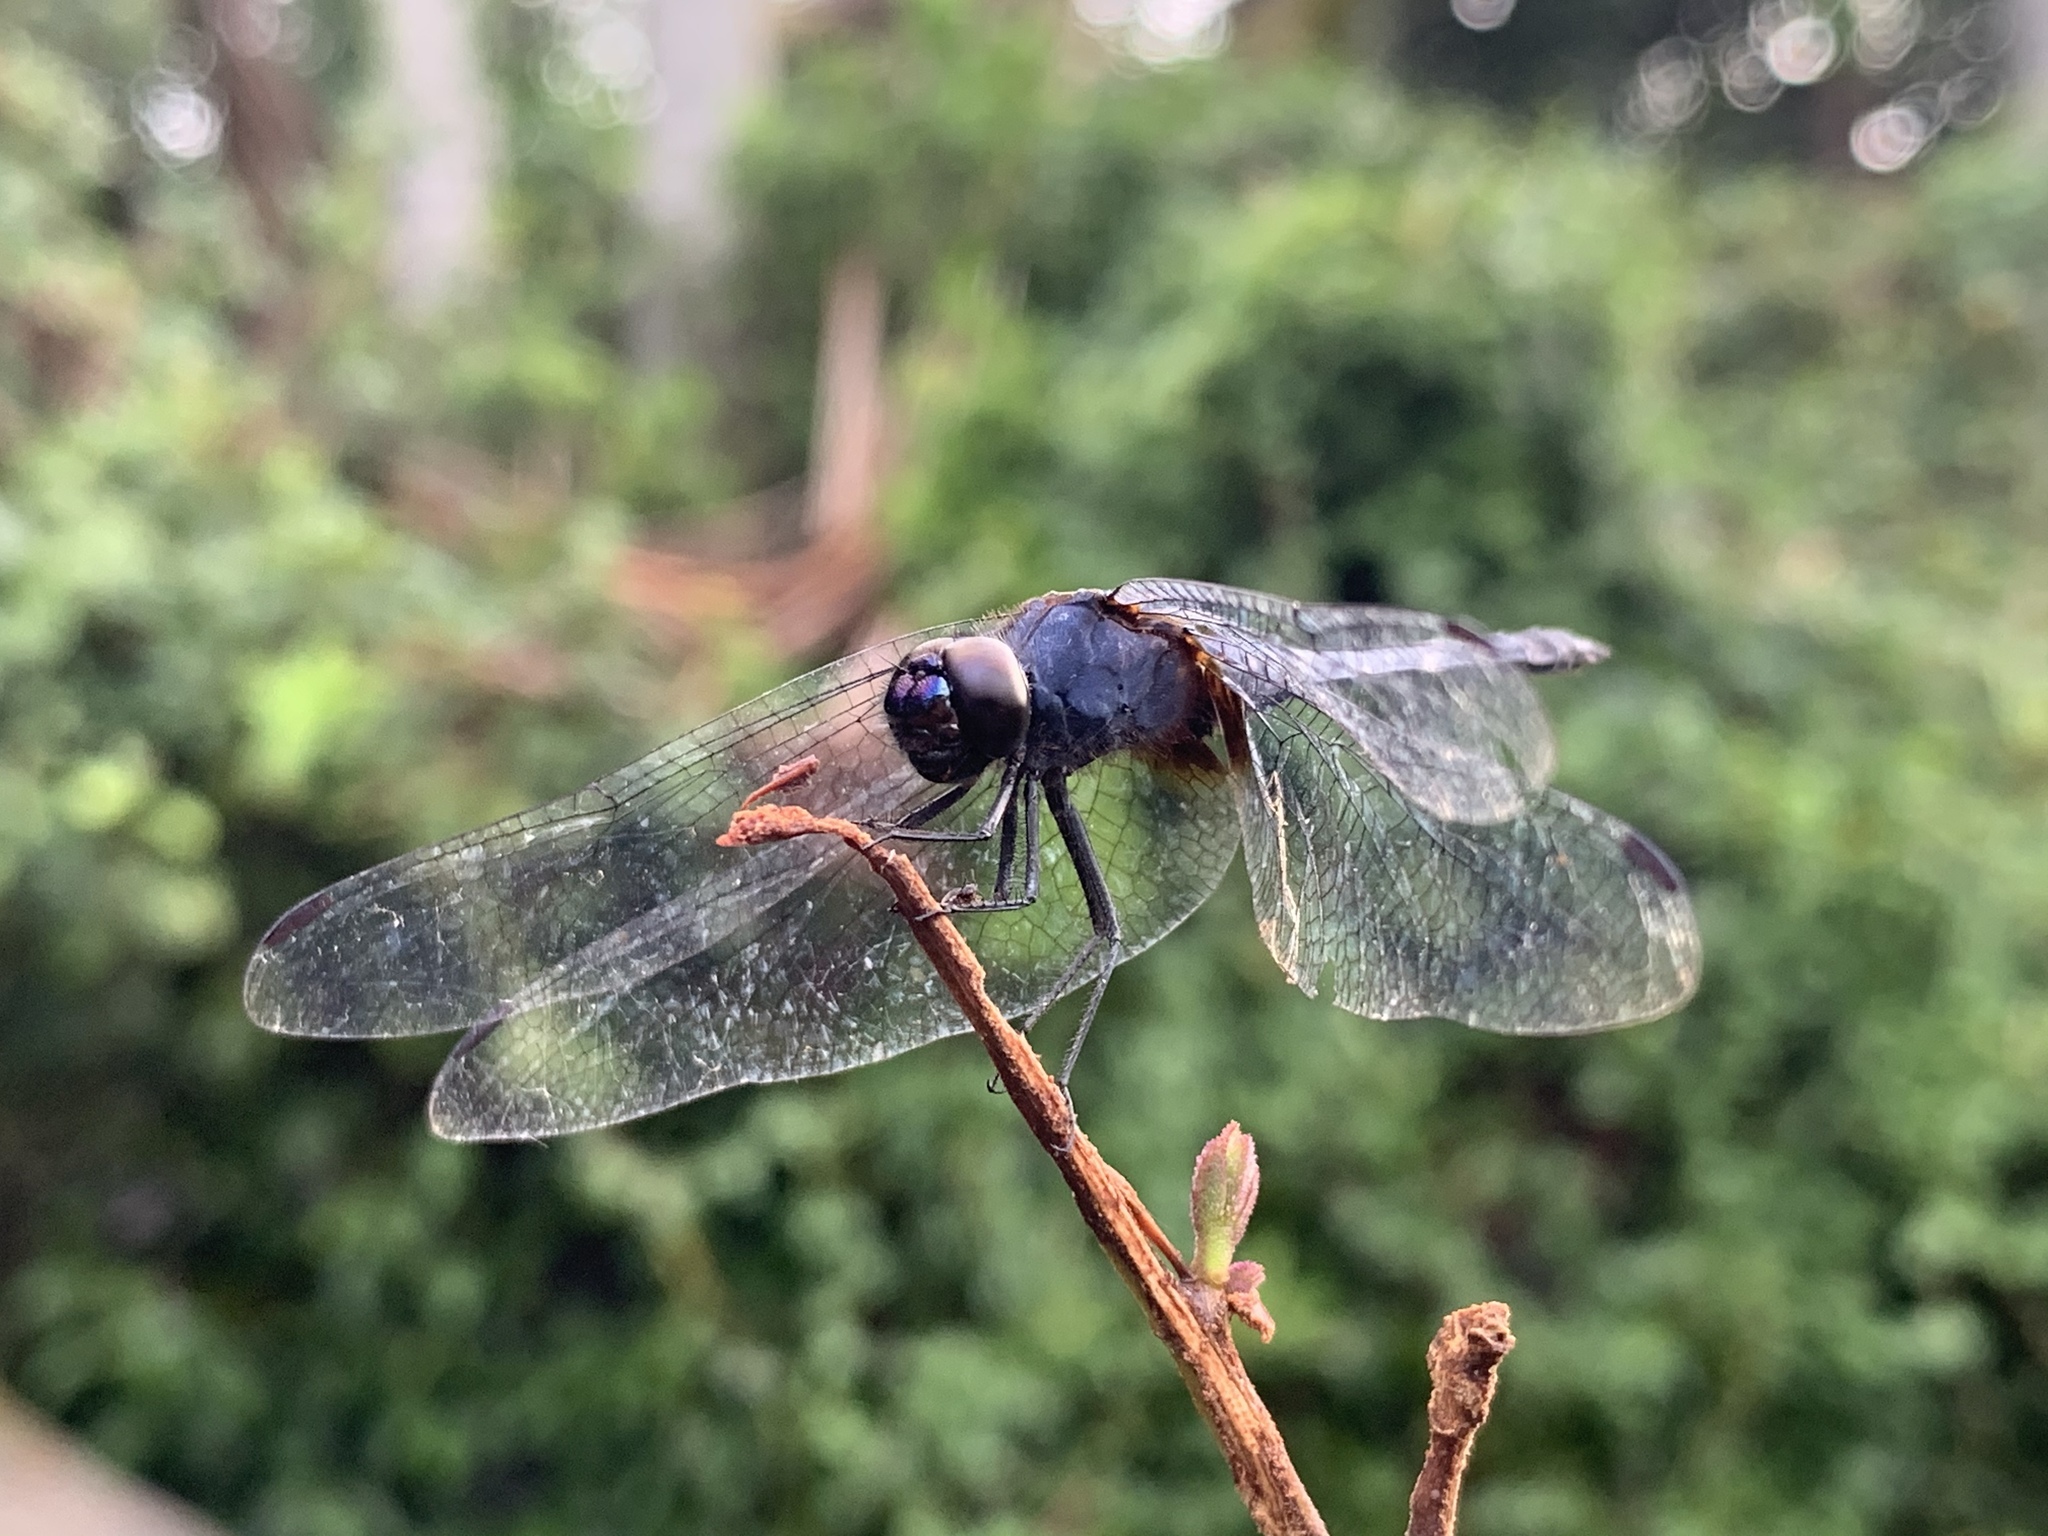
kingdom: Animalia
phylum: Arthropoda
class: Insecta
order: Odonata
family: Libellulidae
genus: Trithemis
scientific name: Trithemis festiva
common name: Indigo dropwing
